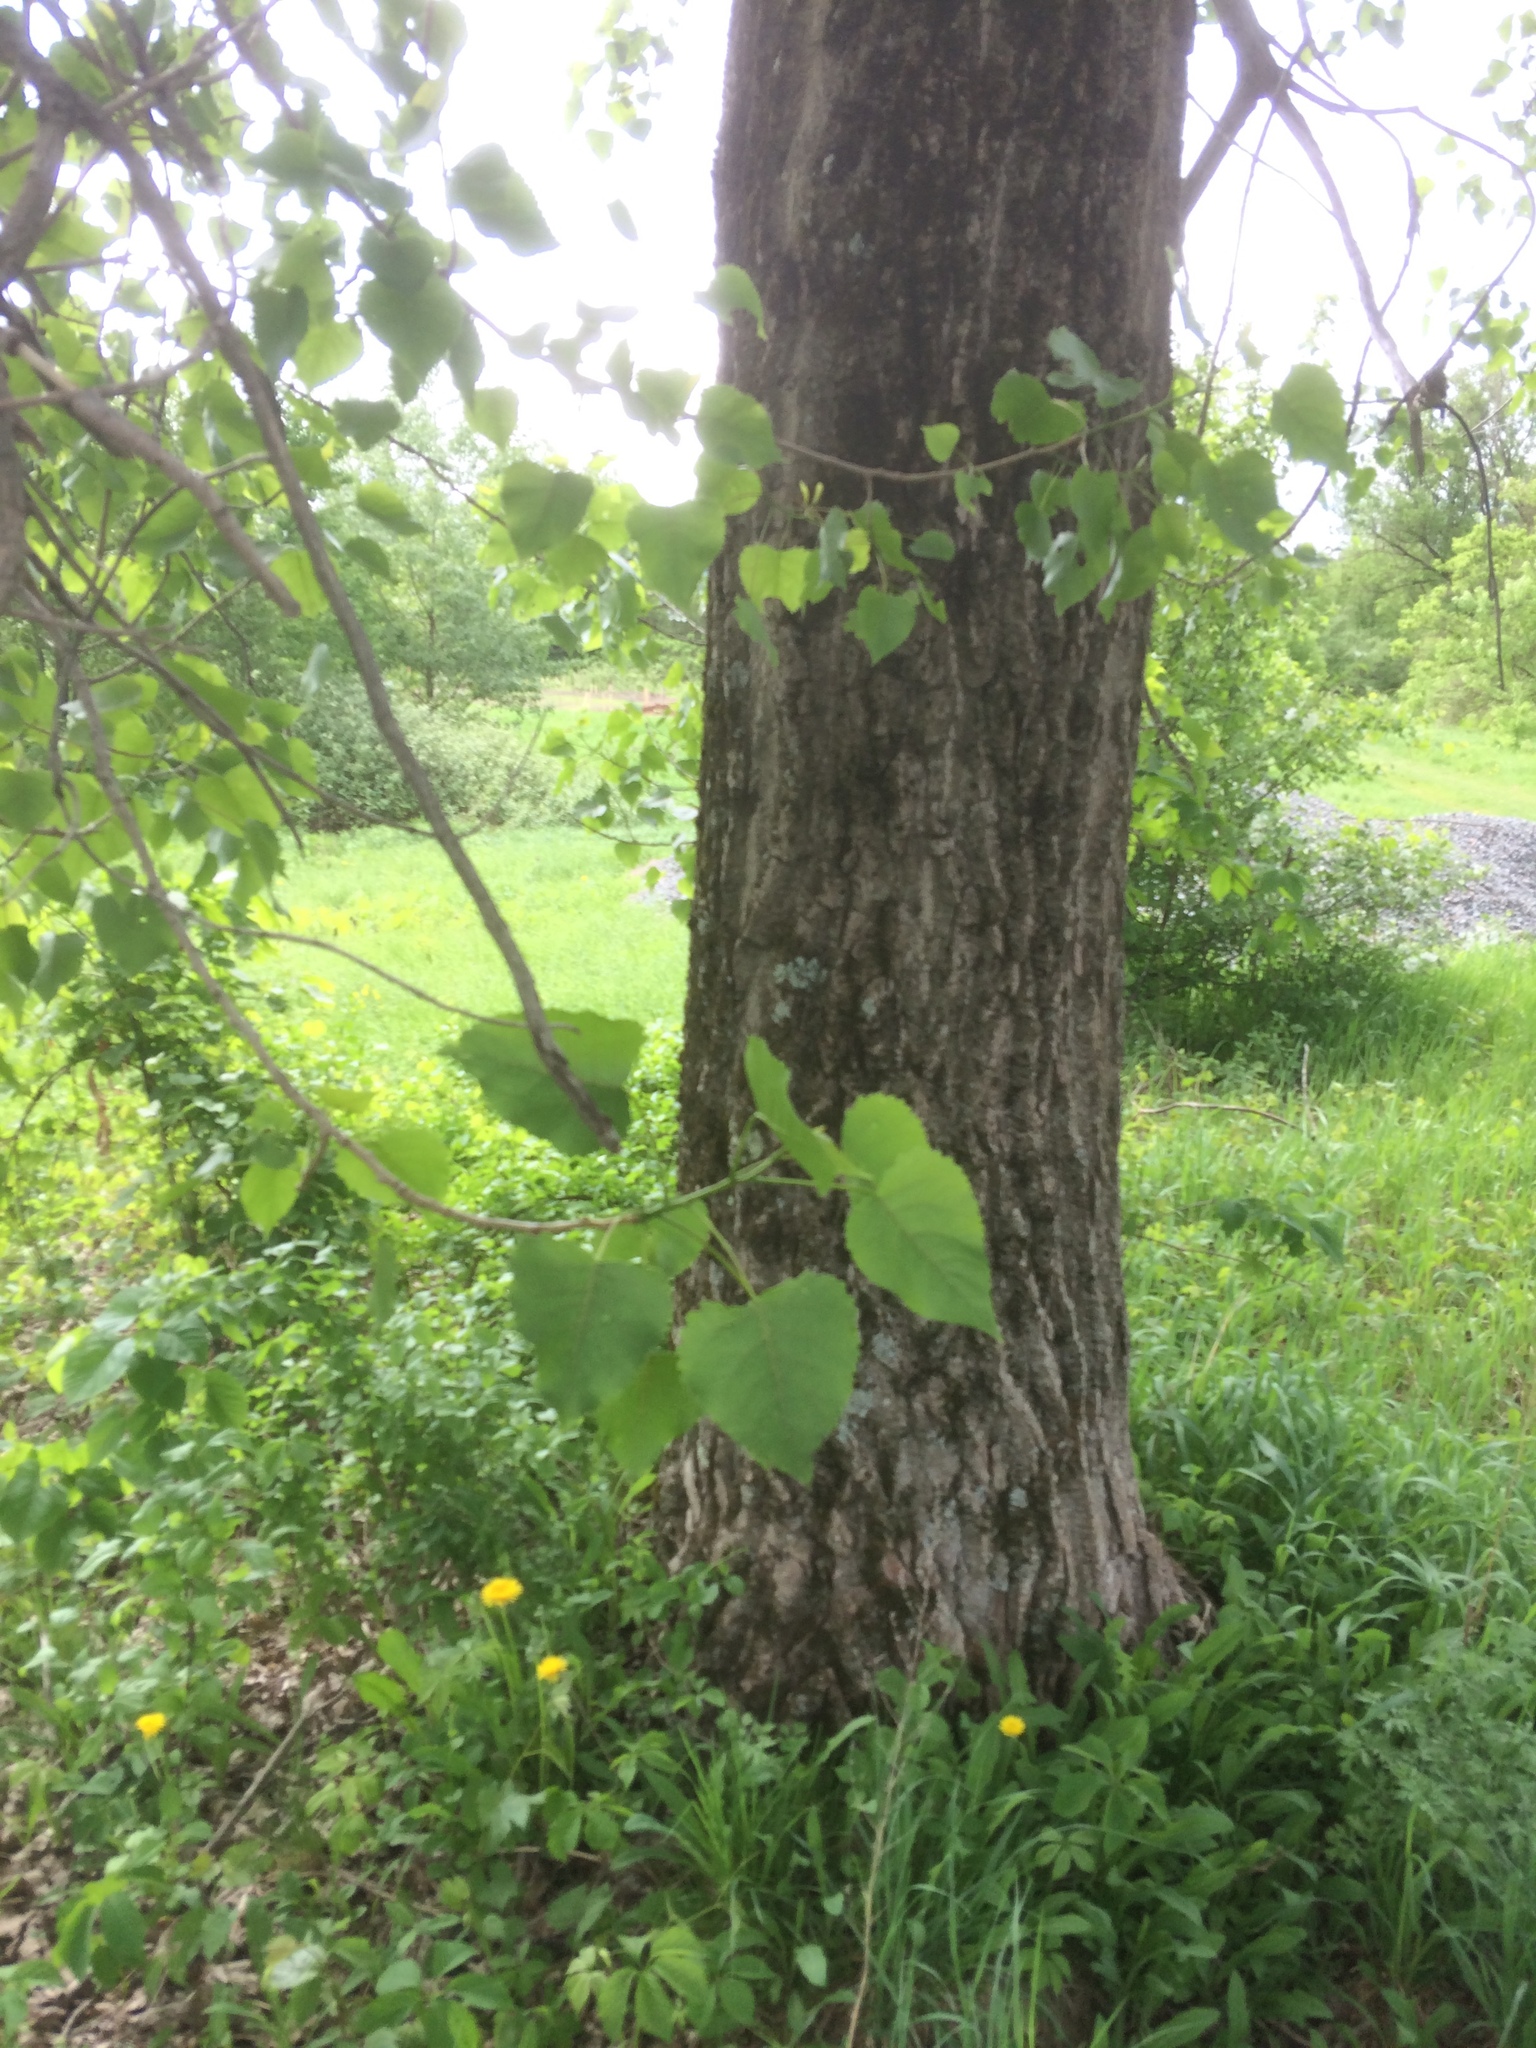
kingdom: Plantae
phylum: Tracheophyta
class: Magnoliopsida
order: Malpighiales
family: Salicaceae
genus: Populus
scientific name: Populus deltoides
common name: Eastern cottonwood
